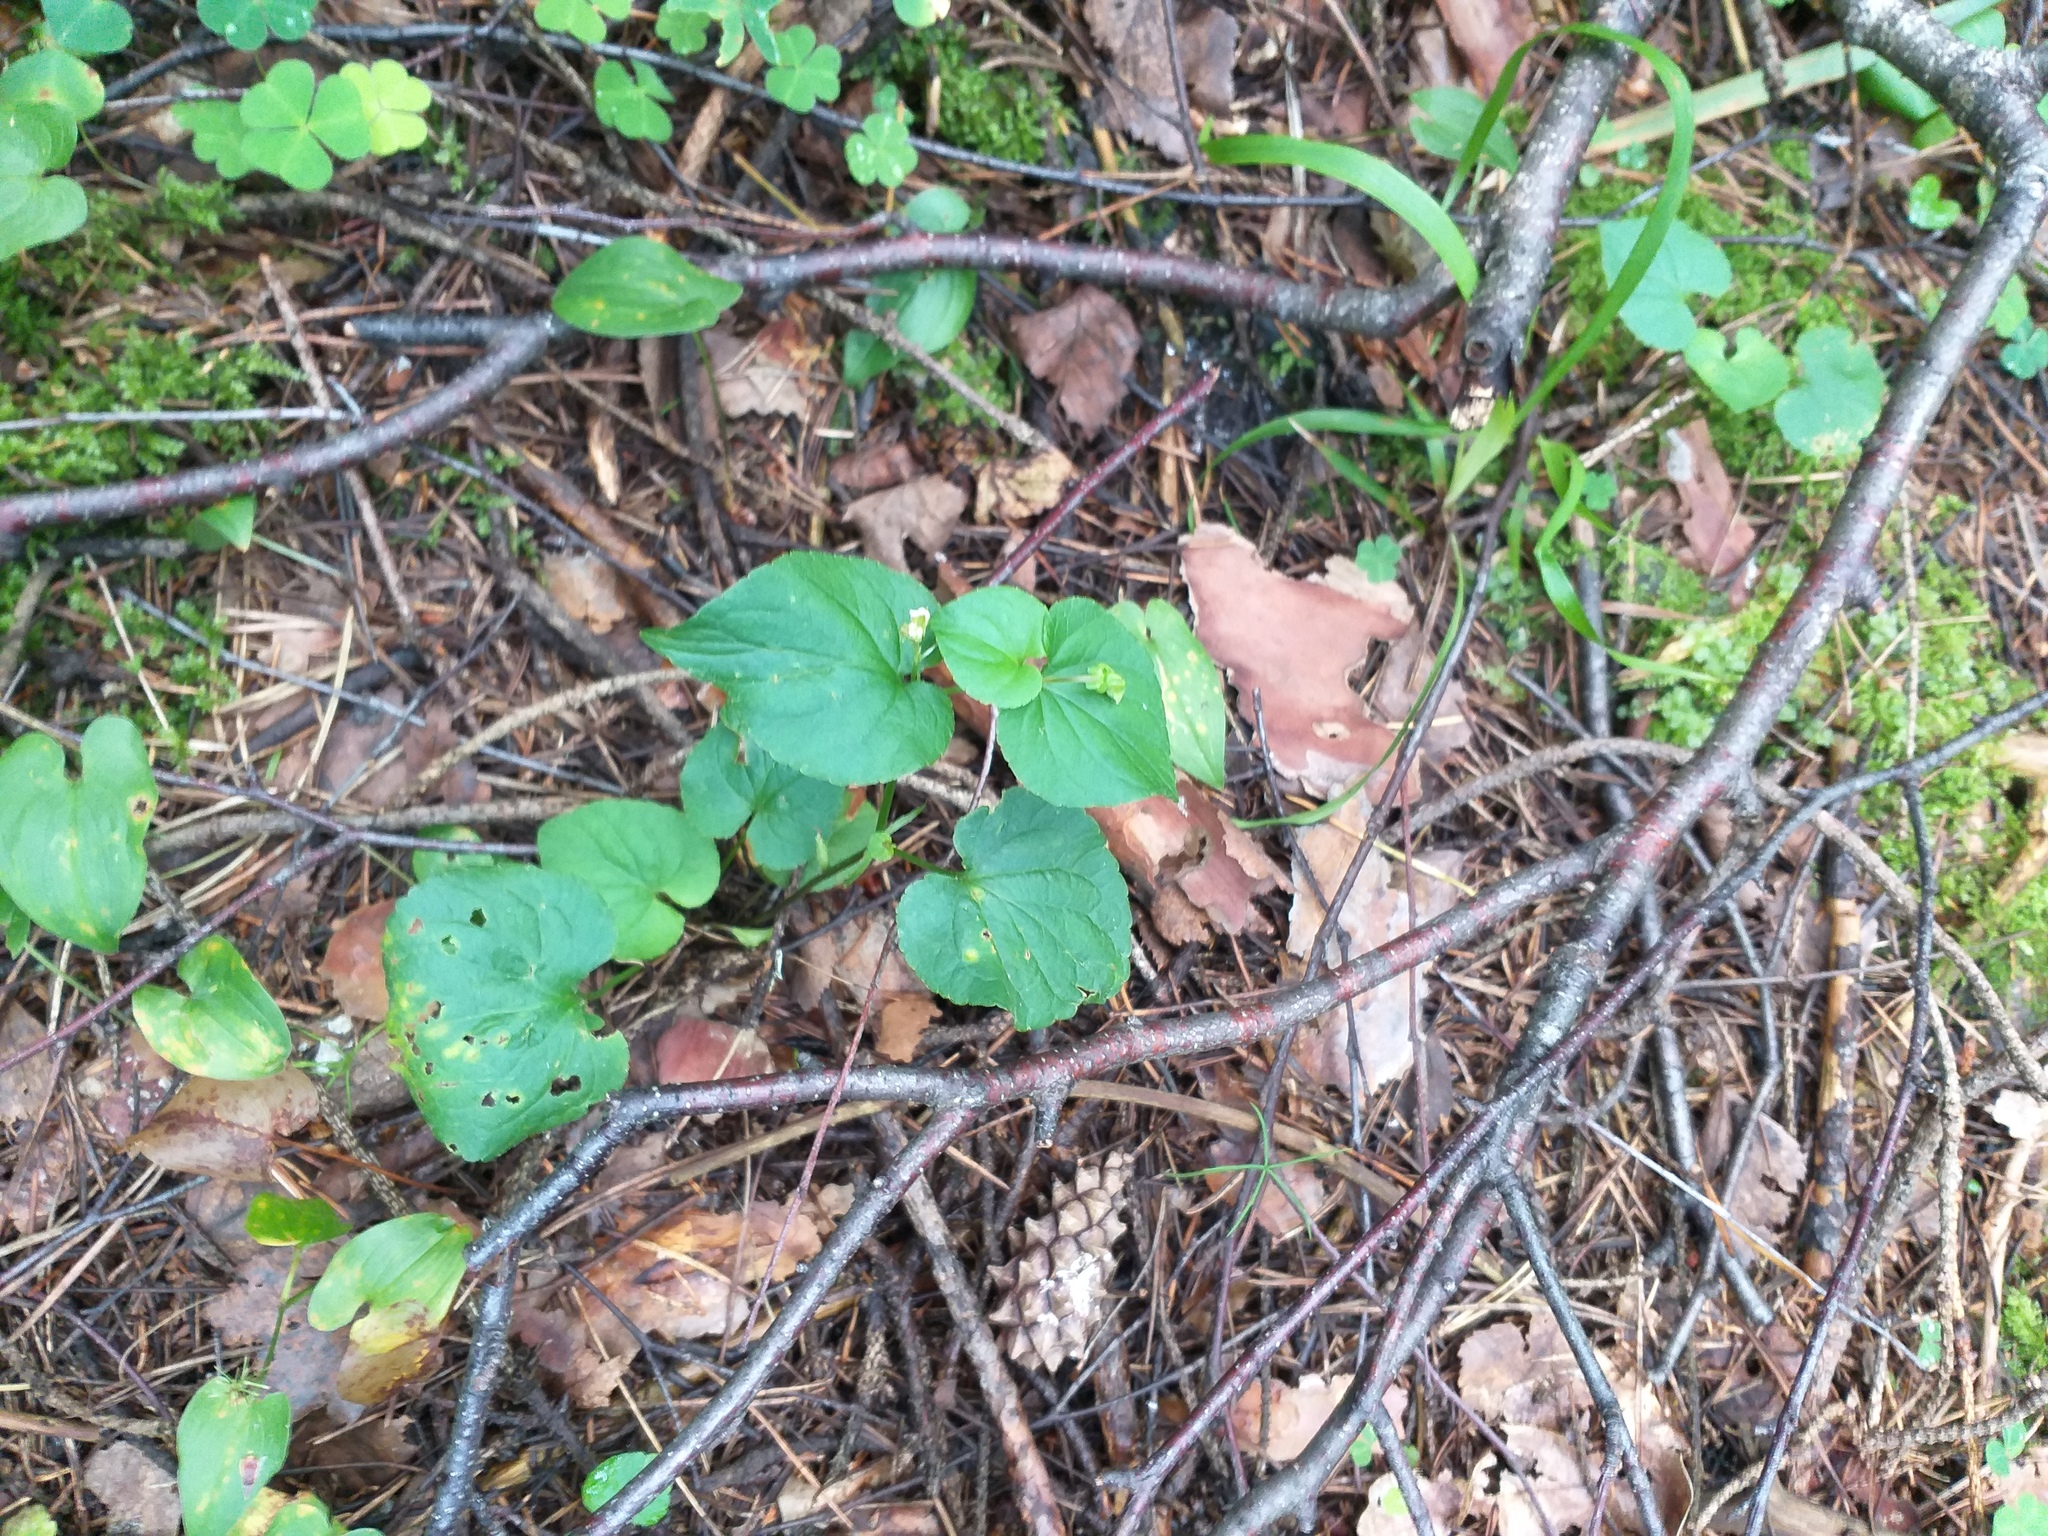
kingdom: Plantae
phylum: Tracheophyta
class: Magnoliopsida
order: Malpighiales
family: Violaceae
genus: Viola
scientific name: Viola riviniana
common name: Common dog-violet
